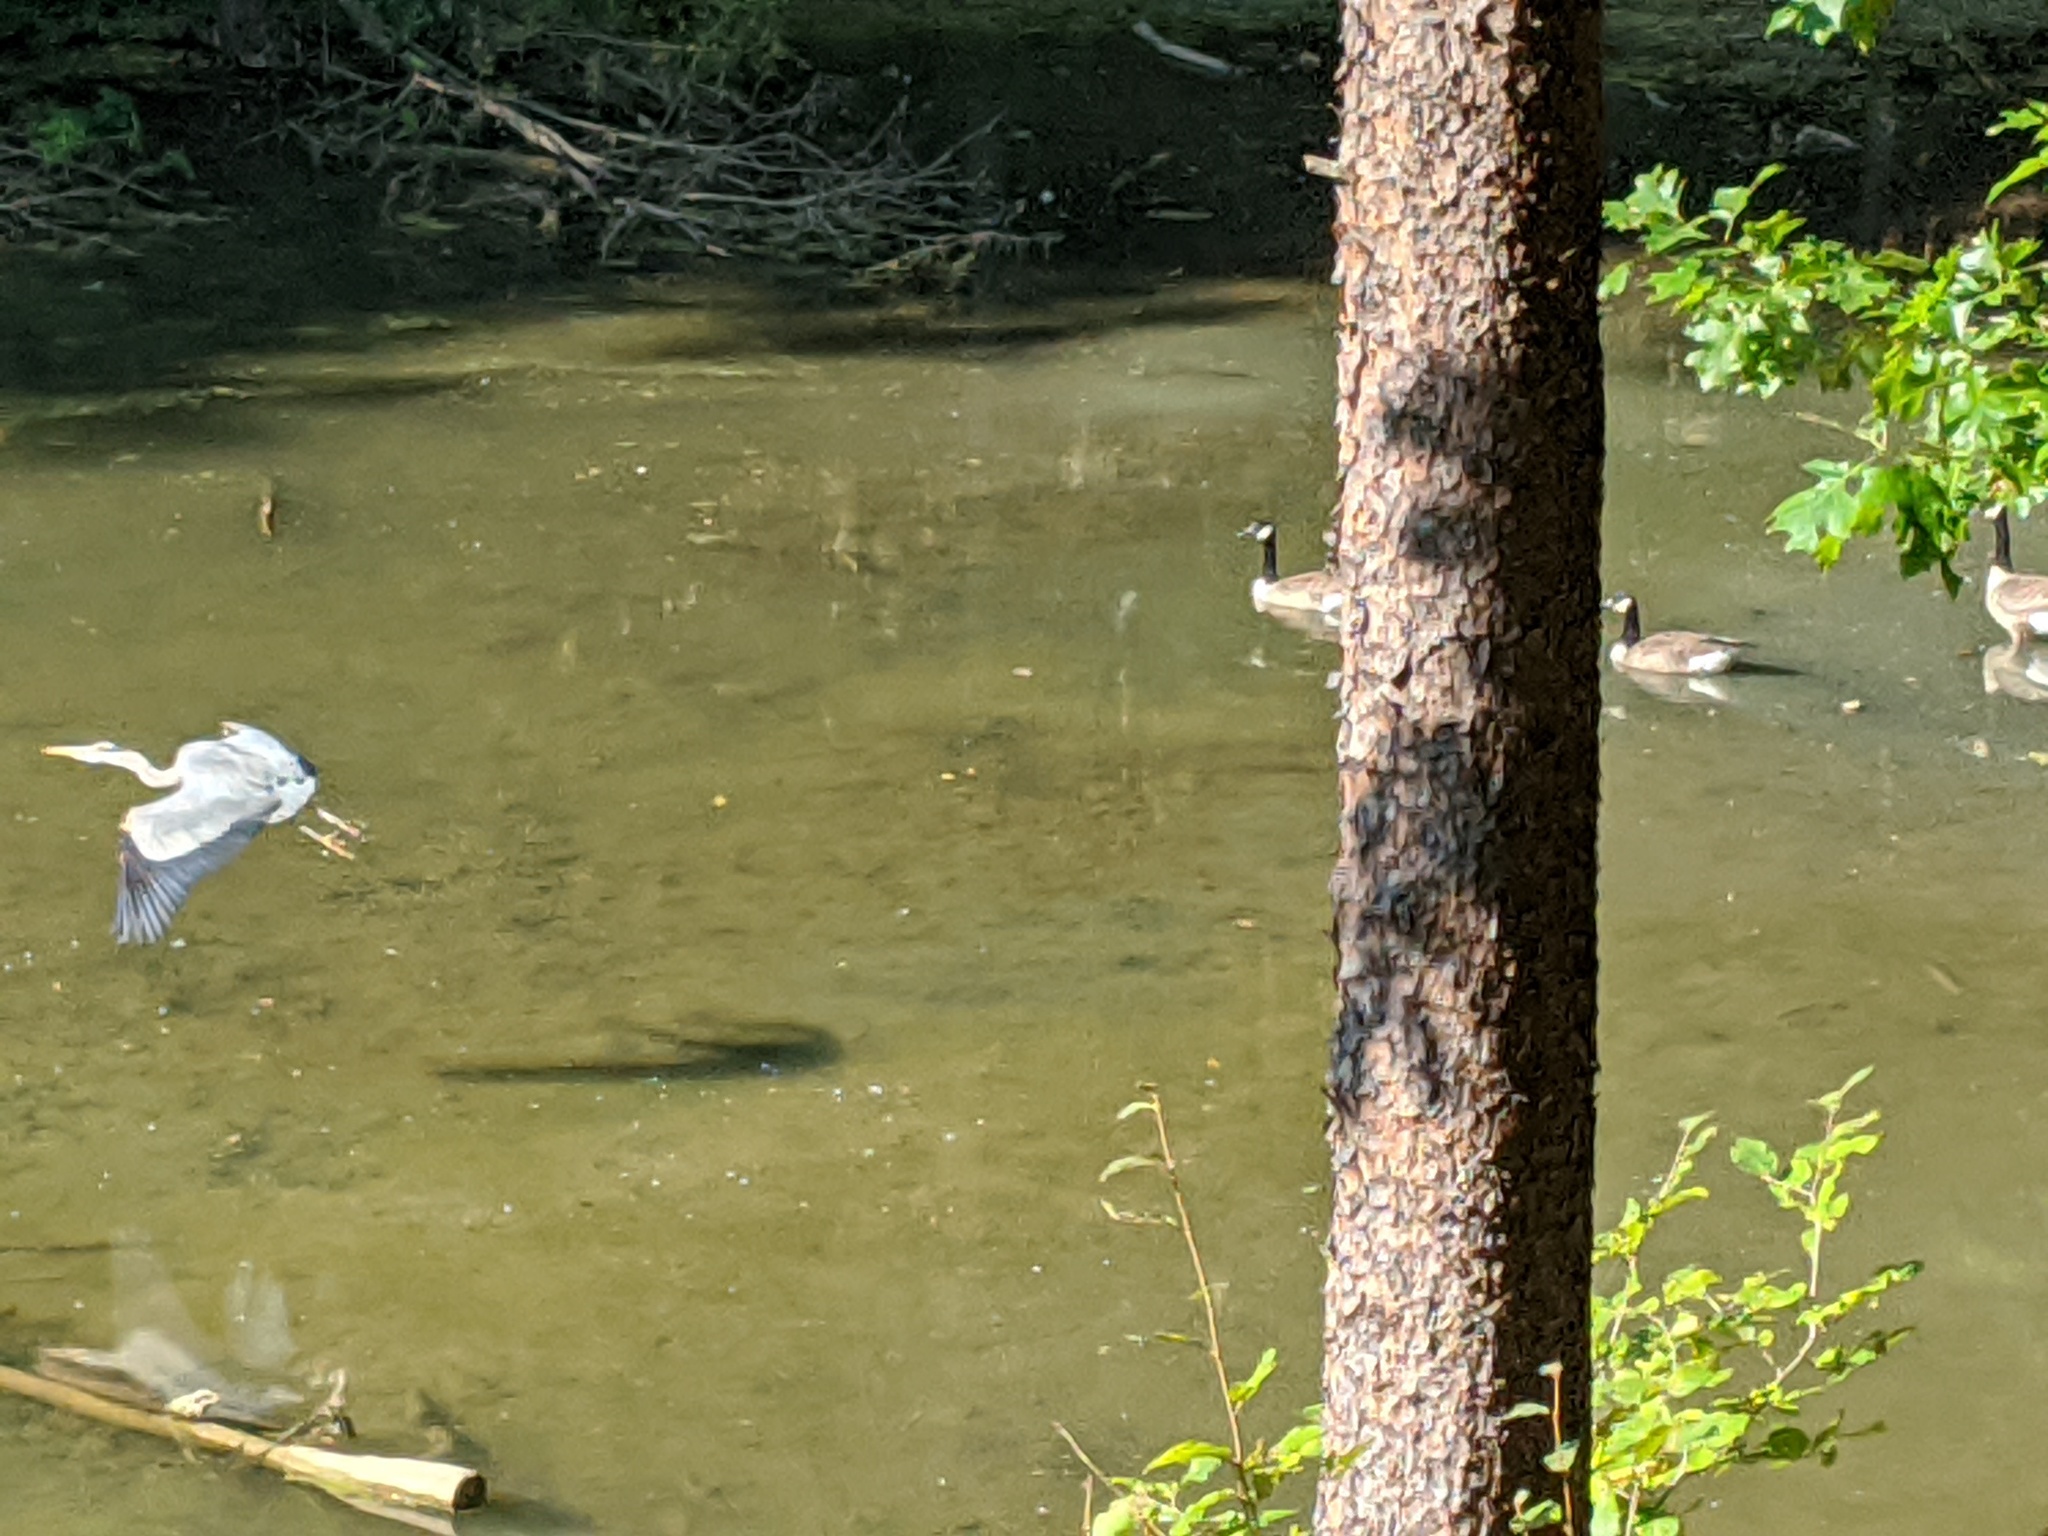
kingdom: Animalia
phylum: Chordata
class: Aves
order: Pelecaniformes
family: Ardeidae
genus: Ardea
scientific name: Ardea herodias
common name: Great blue heron
